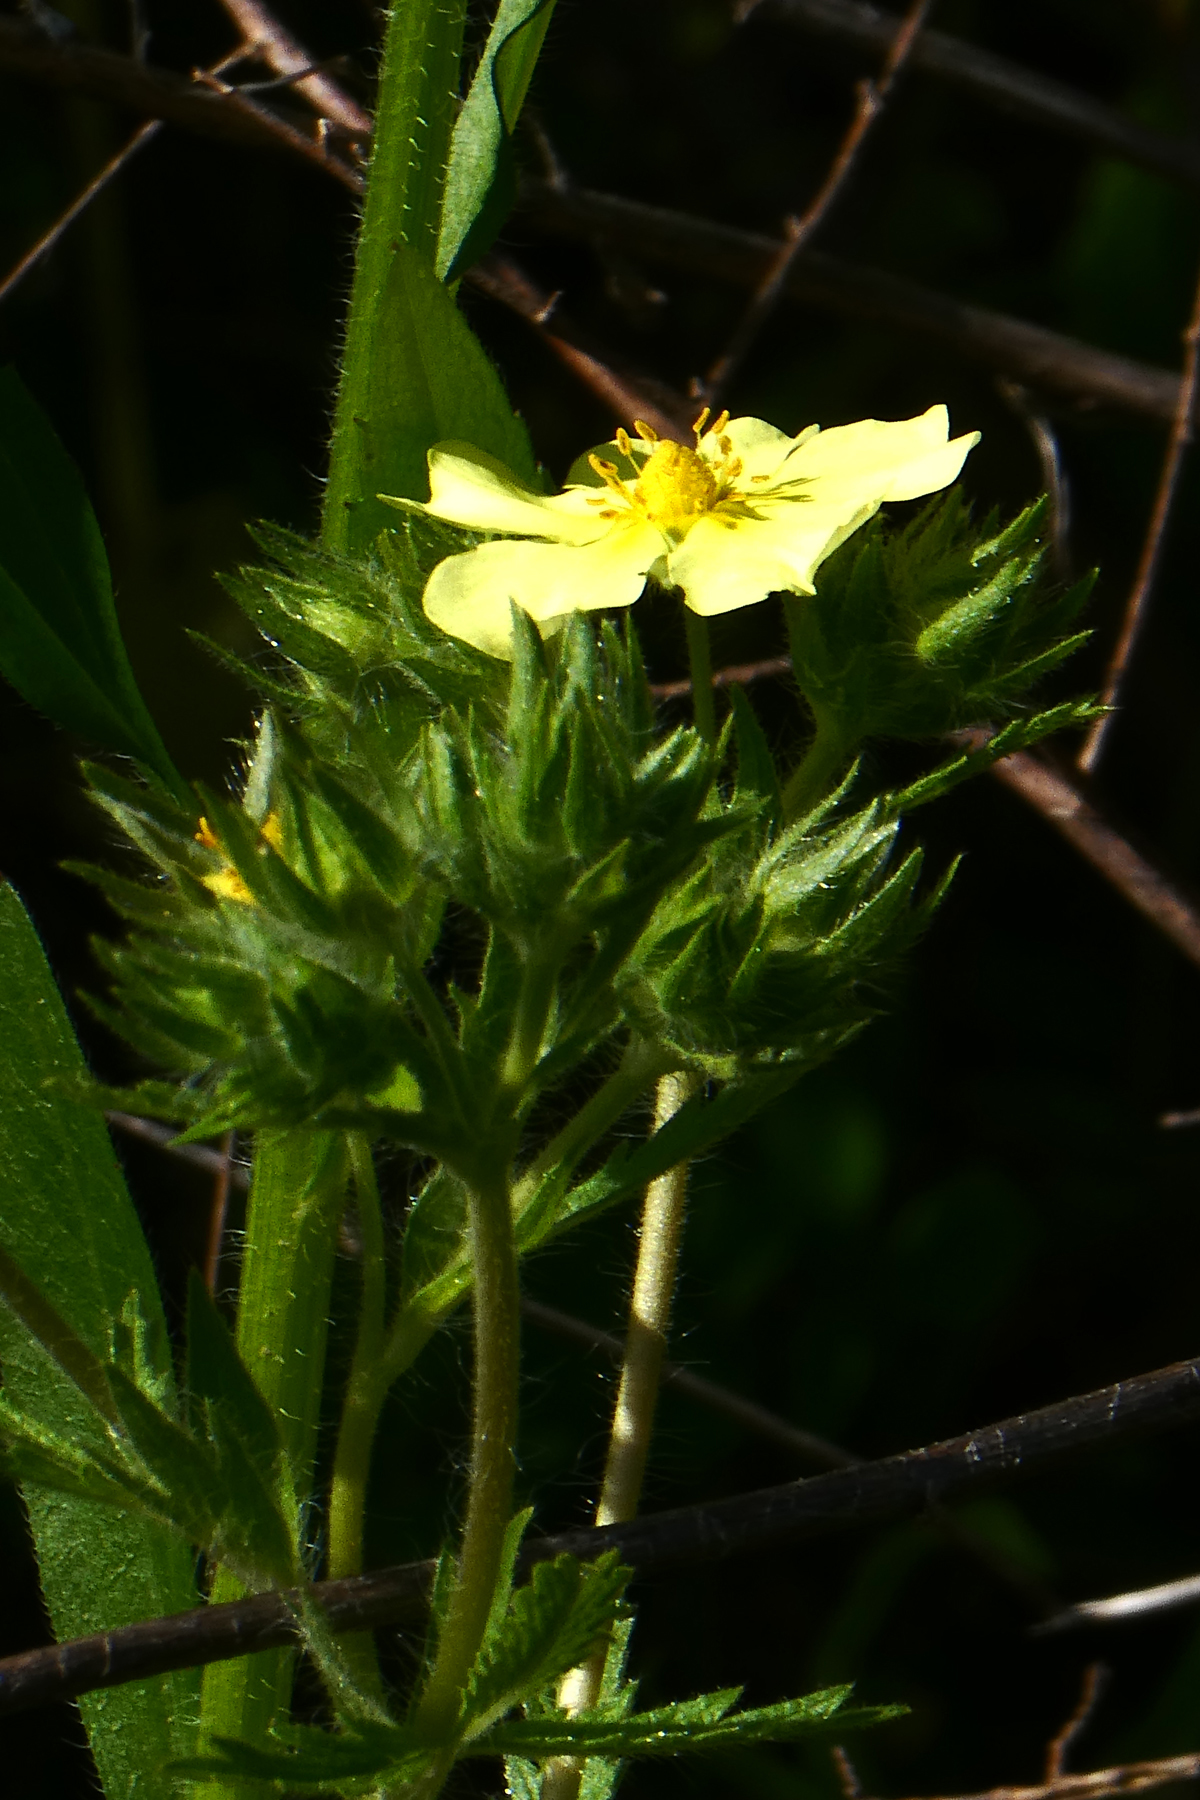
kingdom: Plantae
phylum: Tracheophyta
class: Magnoliopsida
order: Rosales
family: Rosaceae
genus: Potentilla
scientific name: Potentilla recta
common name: Sulphur cinquefoil
